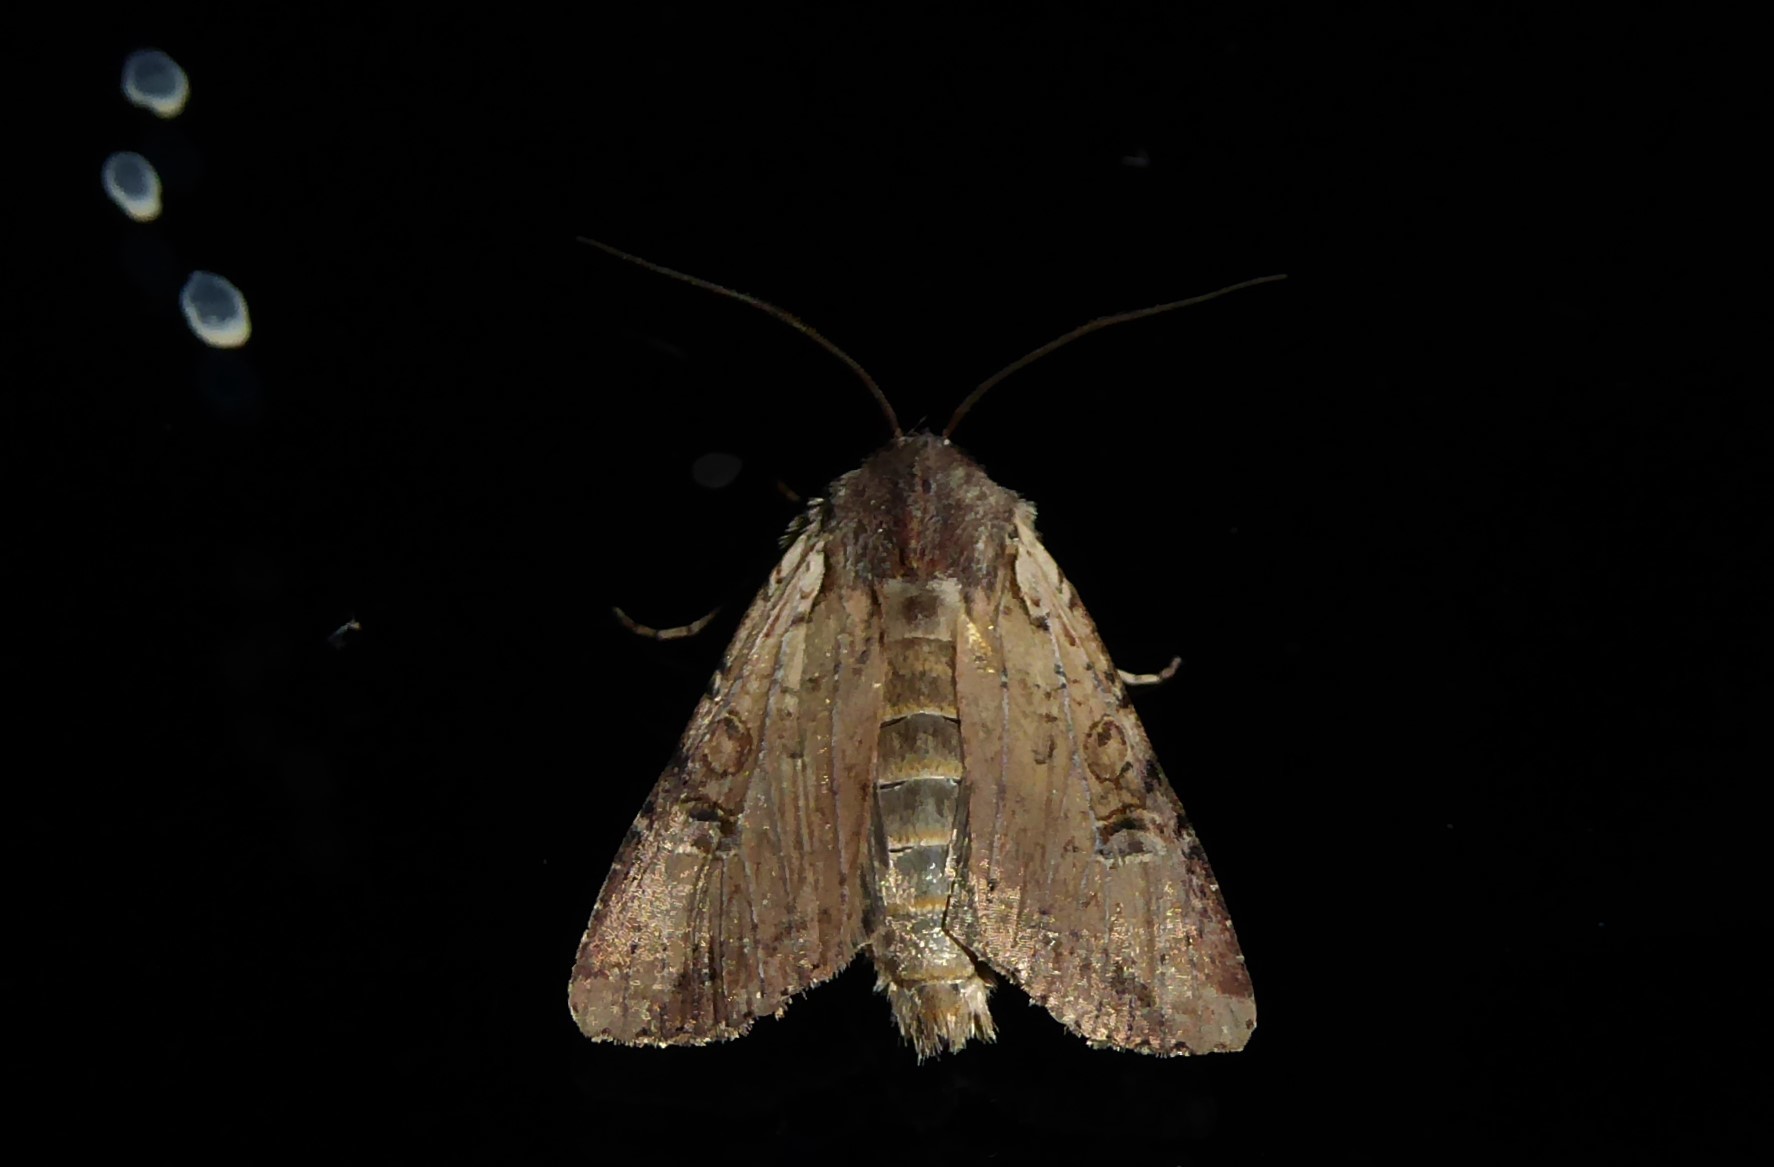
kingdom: Animalia
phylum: Arthropoda
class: Insecta
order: Lepidoptera
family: Noctuidae
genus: Ichneutica
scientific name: Ichneutica omoplaca
